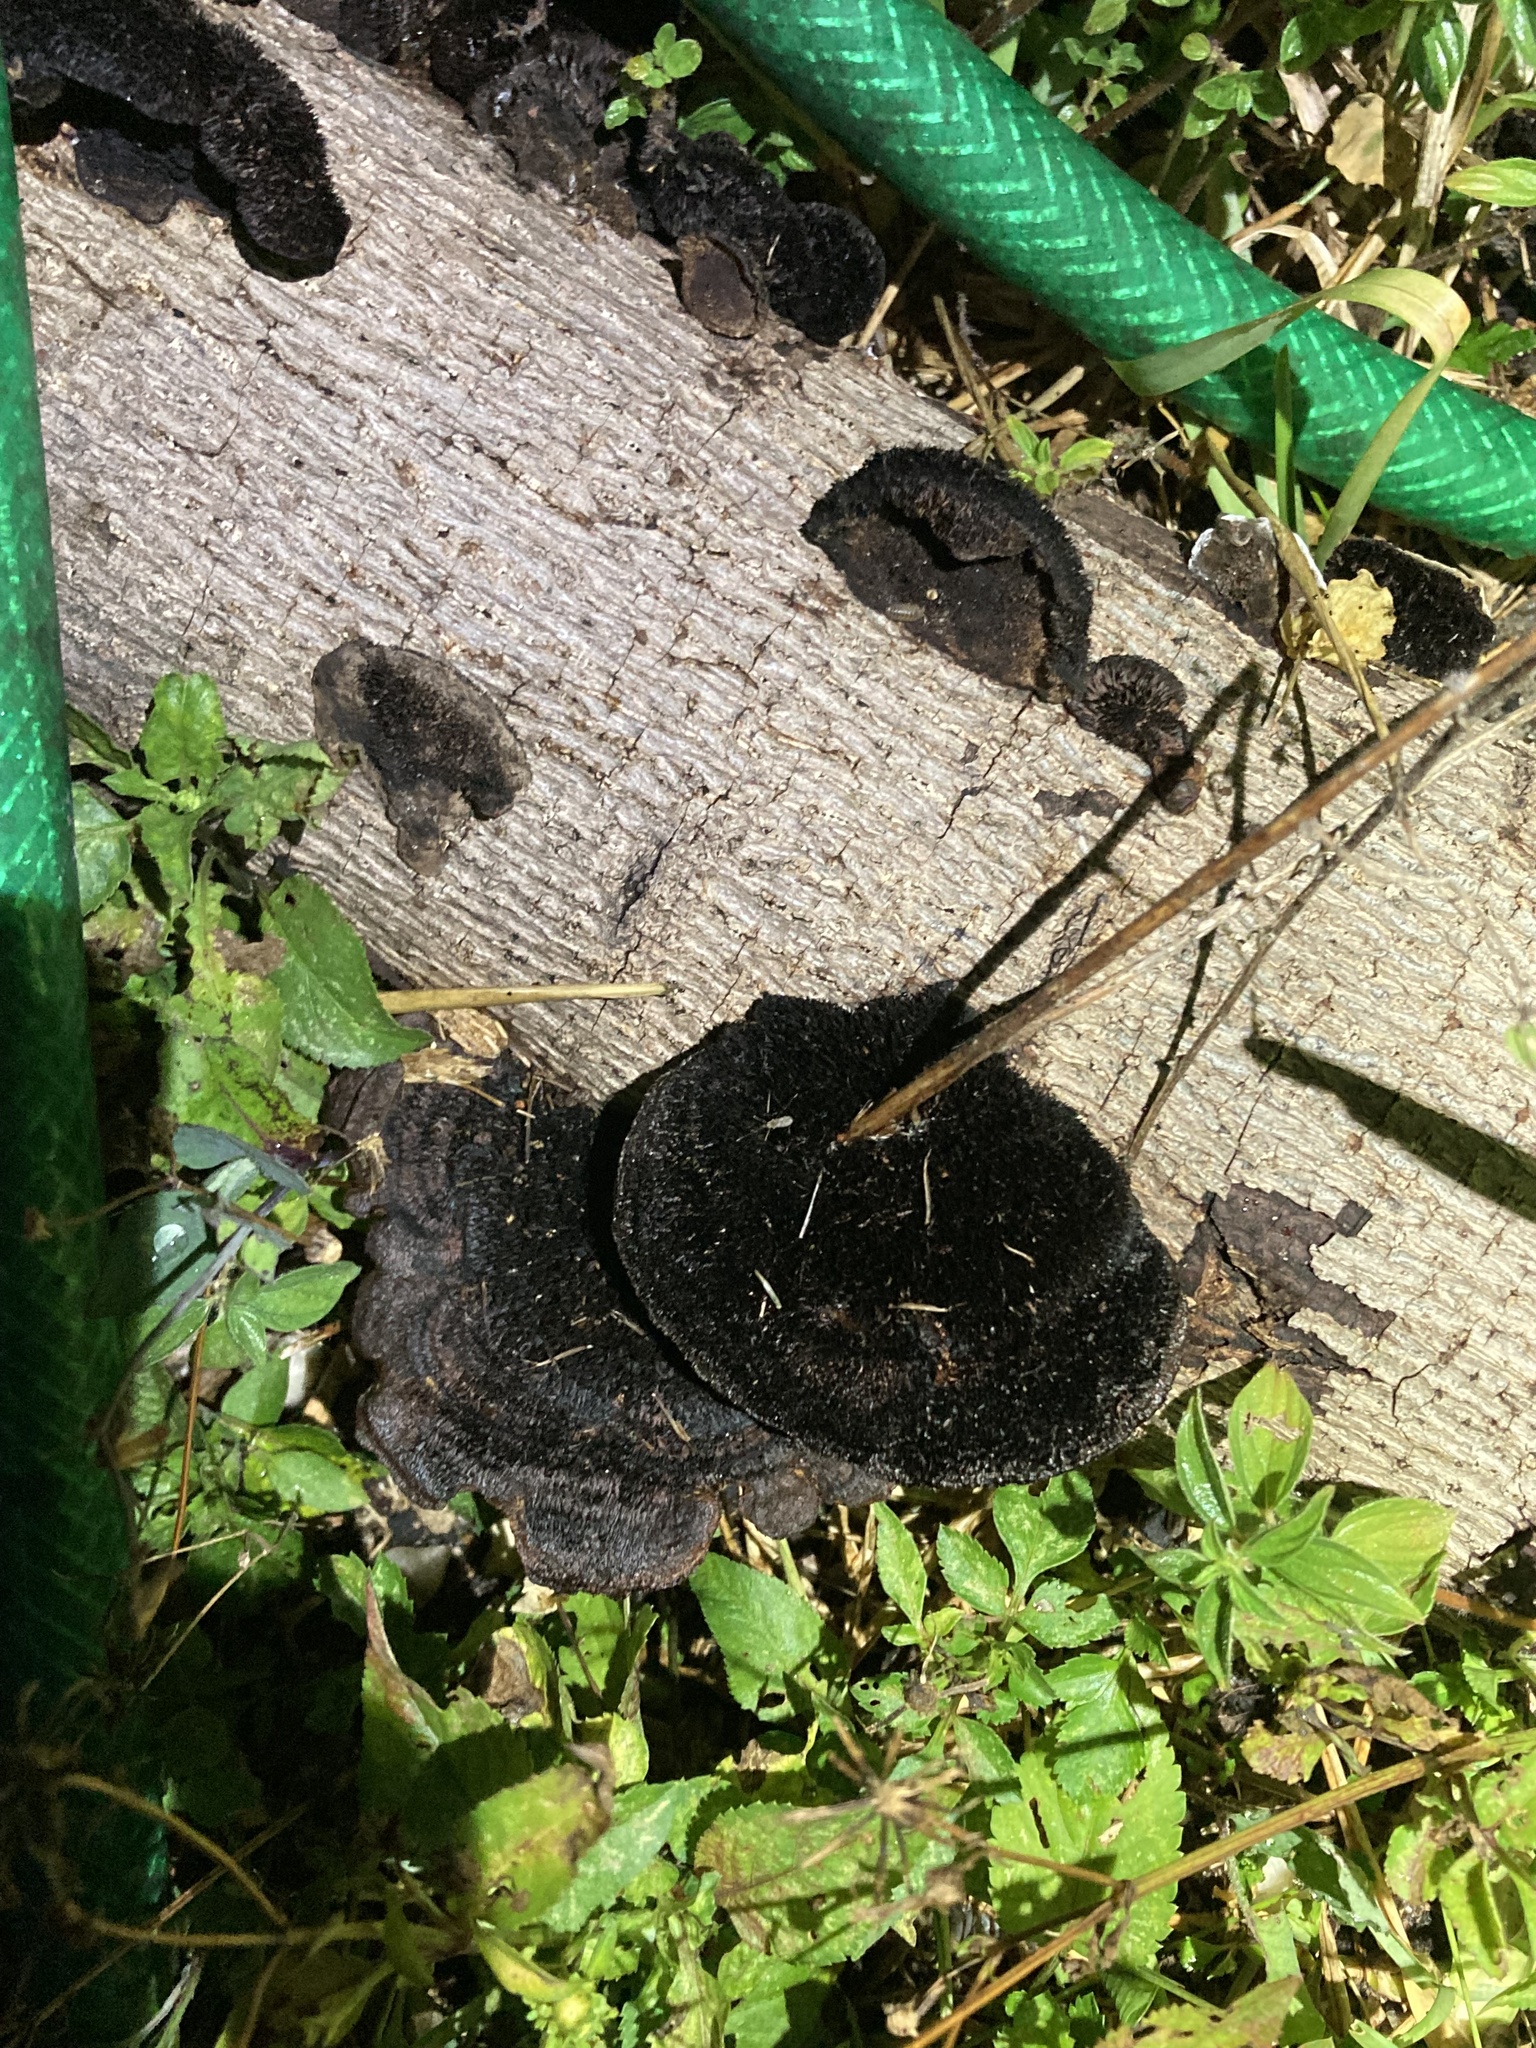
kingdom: Fungi
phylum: Basidiomycota
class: Agaricomycetes
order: Polyporales
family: Cerrenaceae
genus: Cerrena
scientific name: Cerrena hydnoides
